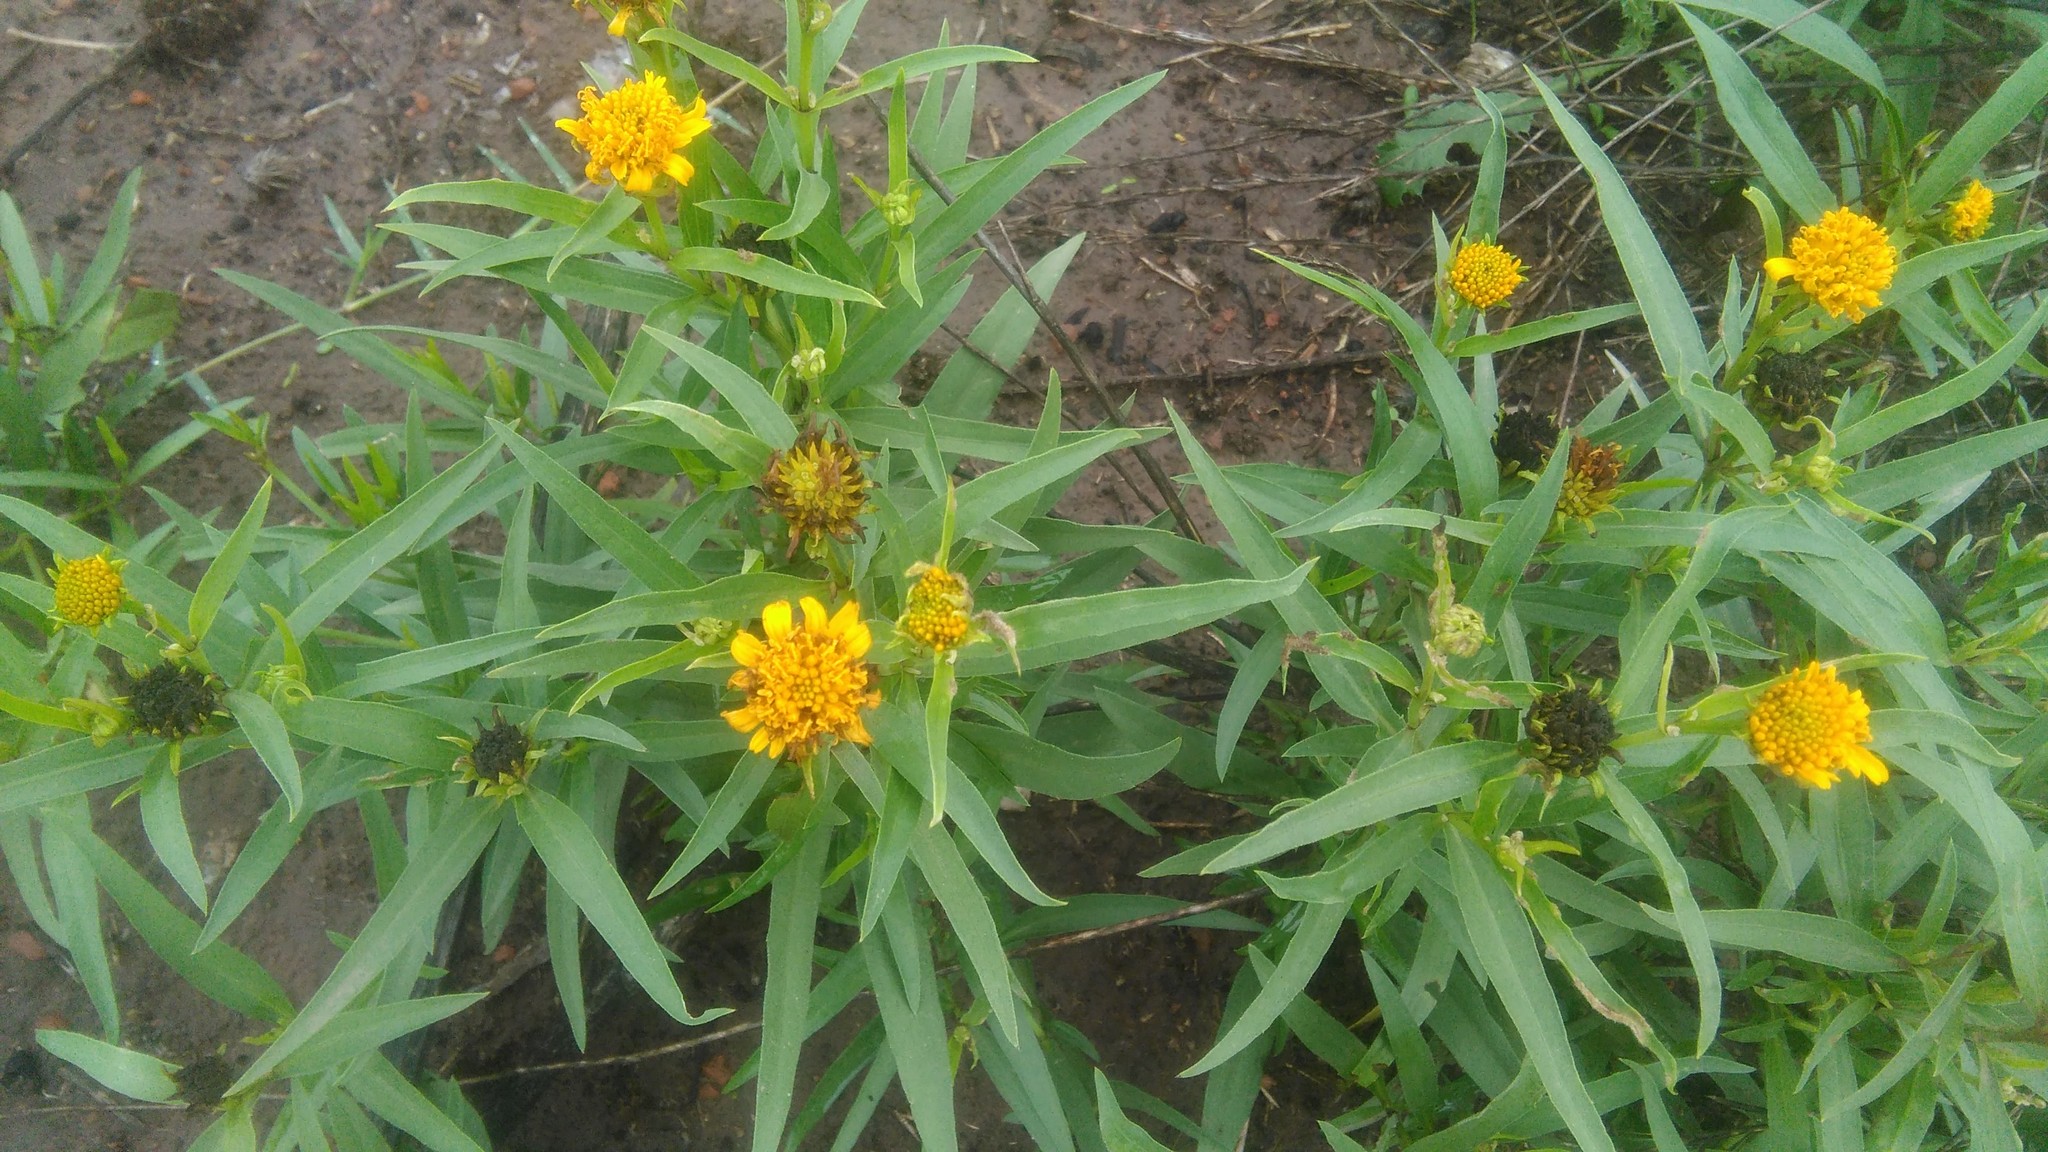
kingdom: Plantae
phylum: Tracheophyta
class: Magnoliopsida
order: Asterales
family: Asteraceae
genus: Pascalia
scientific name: Pascalia glauca
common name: Beach creeping oxeye
